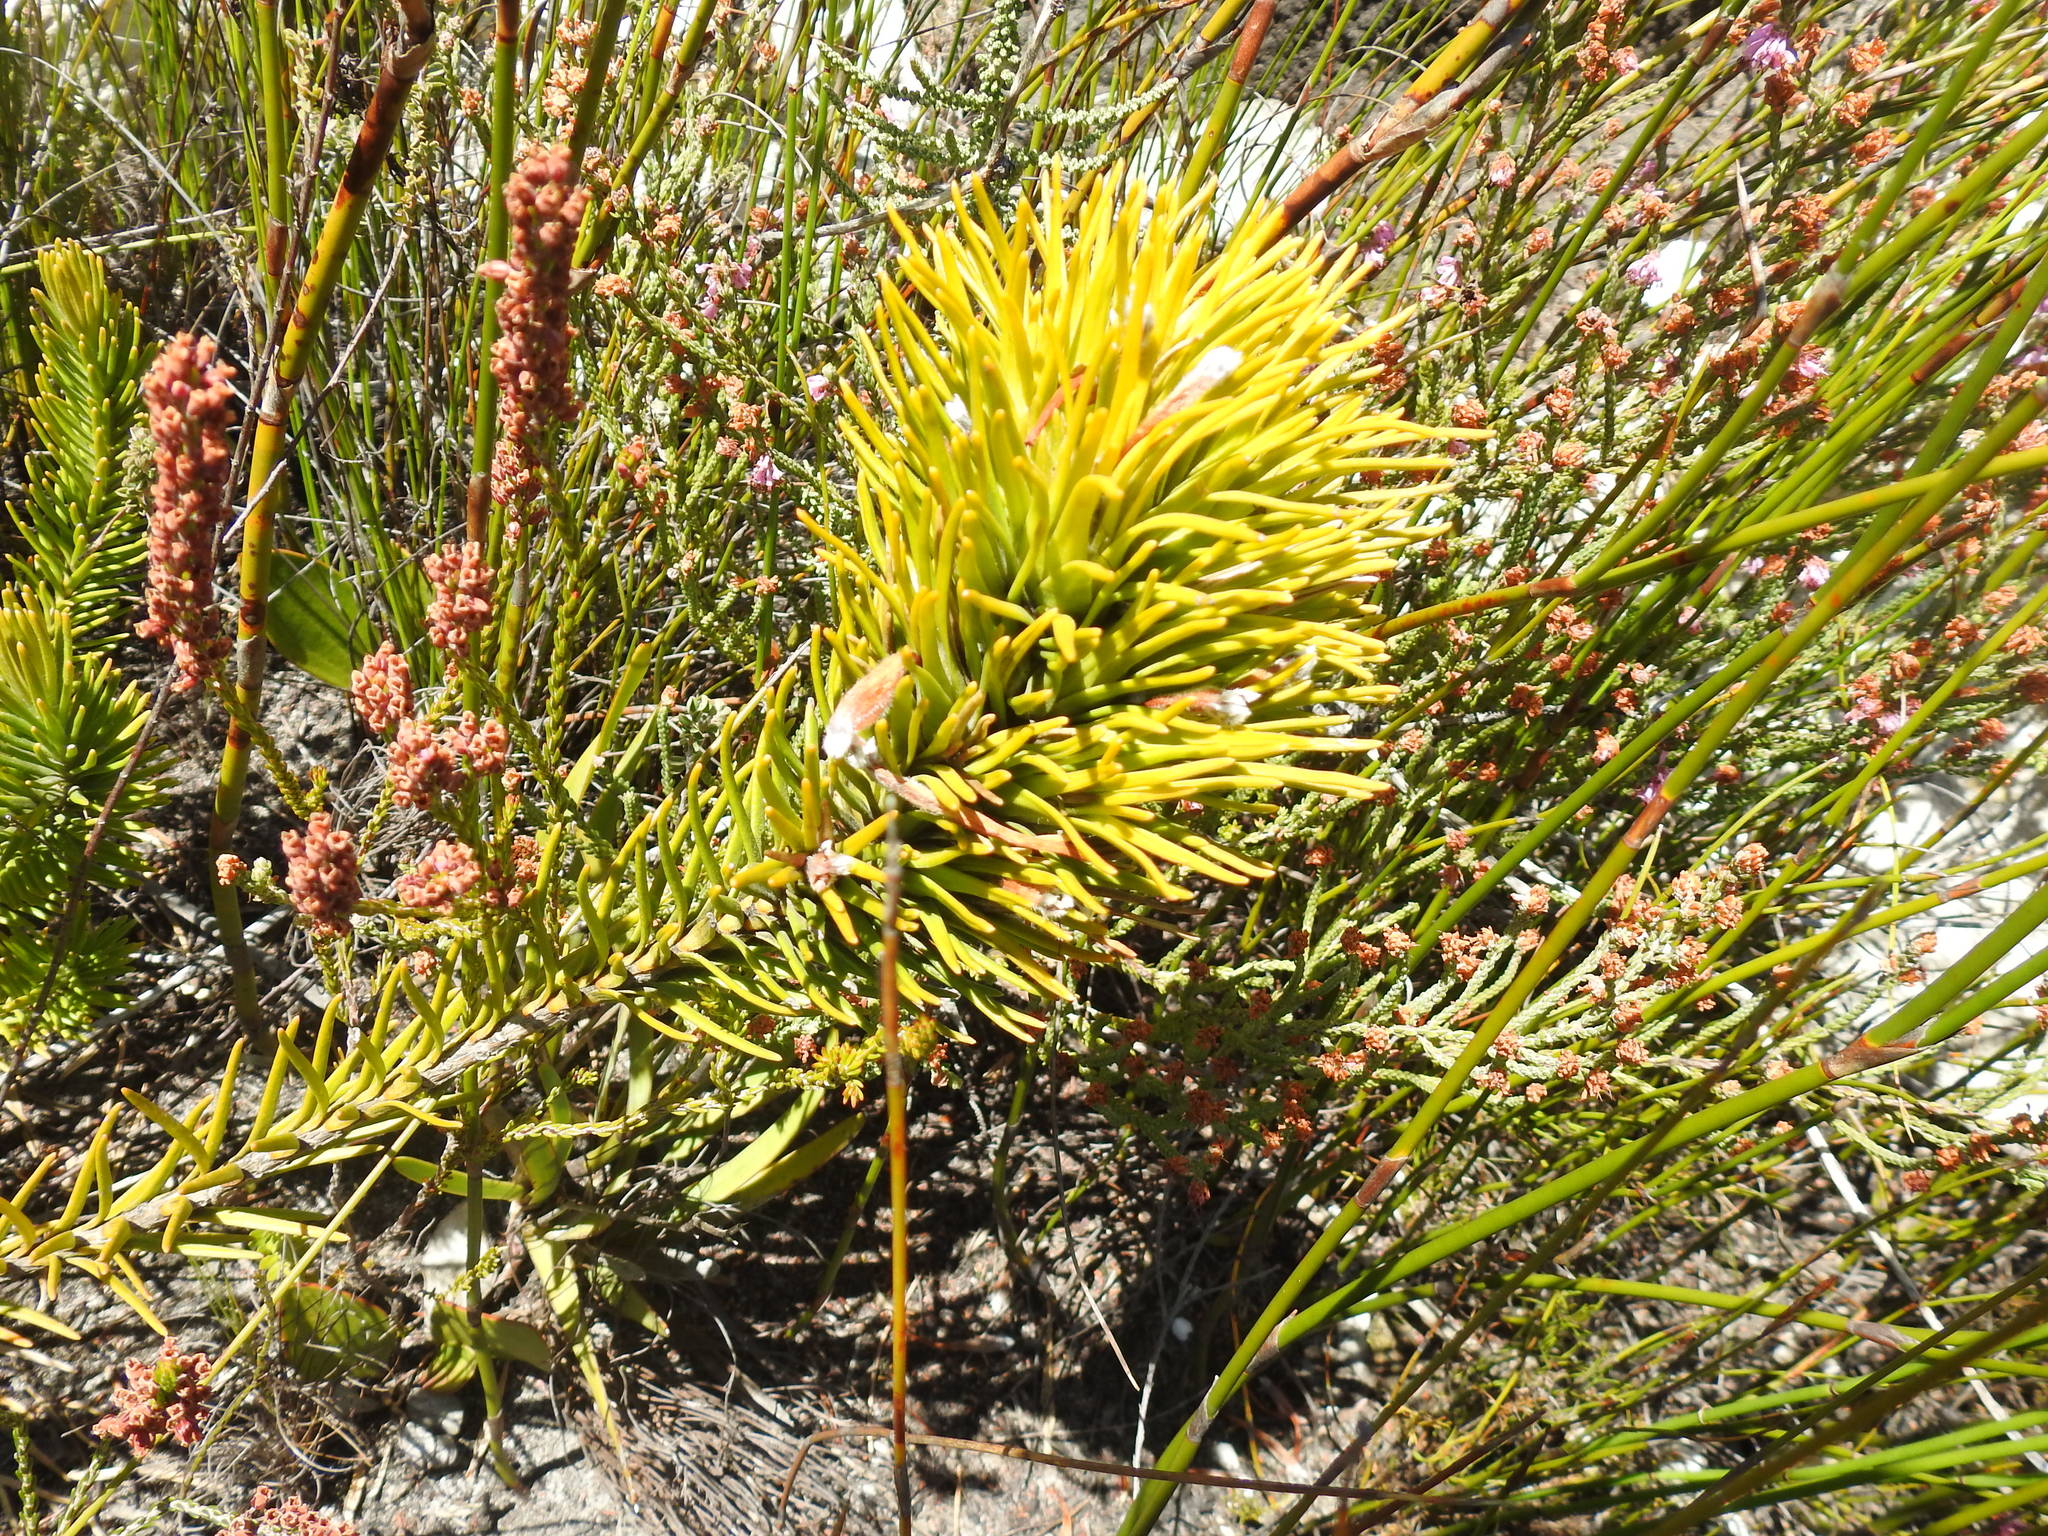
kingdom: Plantae
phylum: Tracheophyta
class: Magnoliopsida
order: Lamiales
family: Stilbaceae
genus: Retzia
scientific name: Retzia capensis
